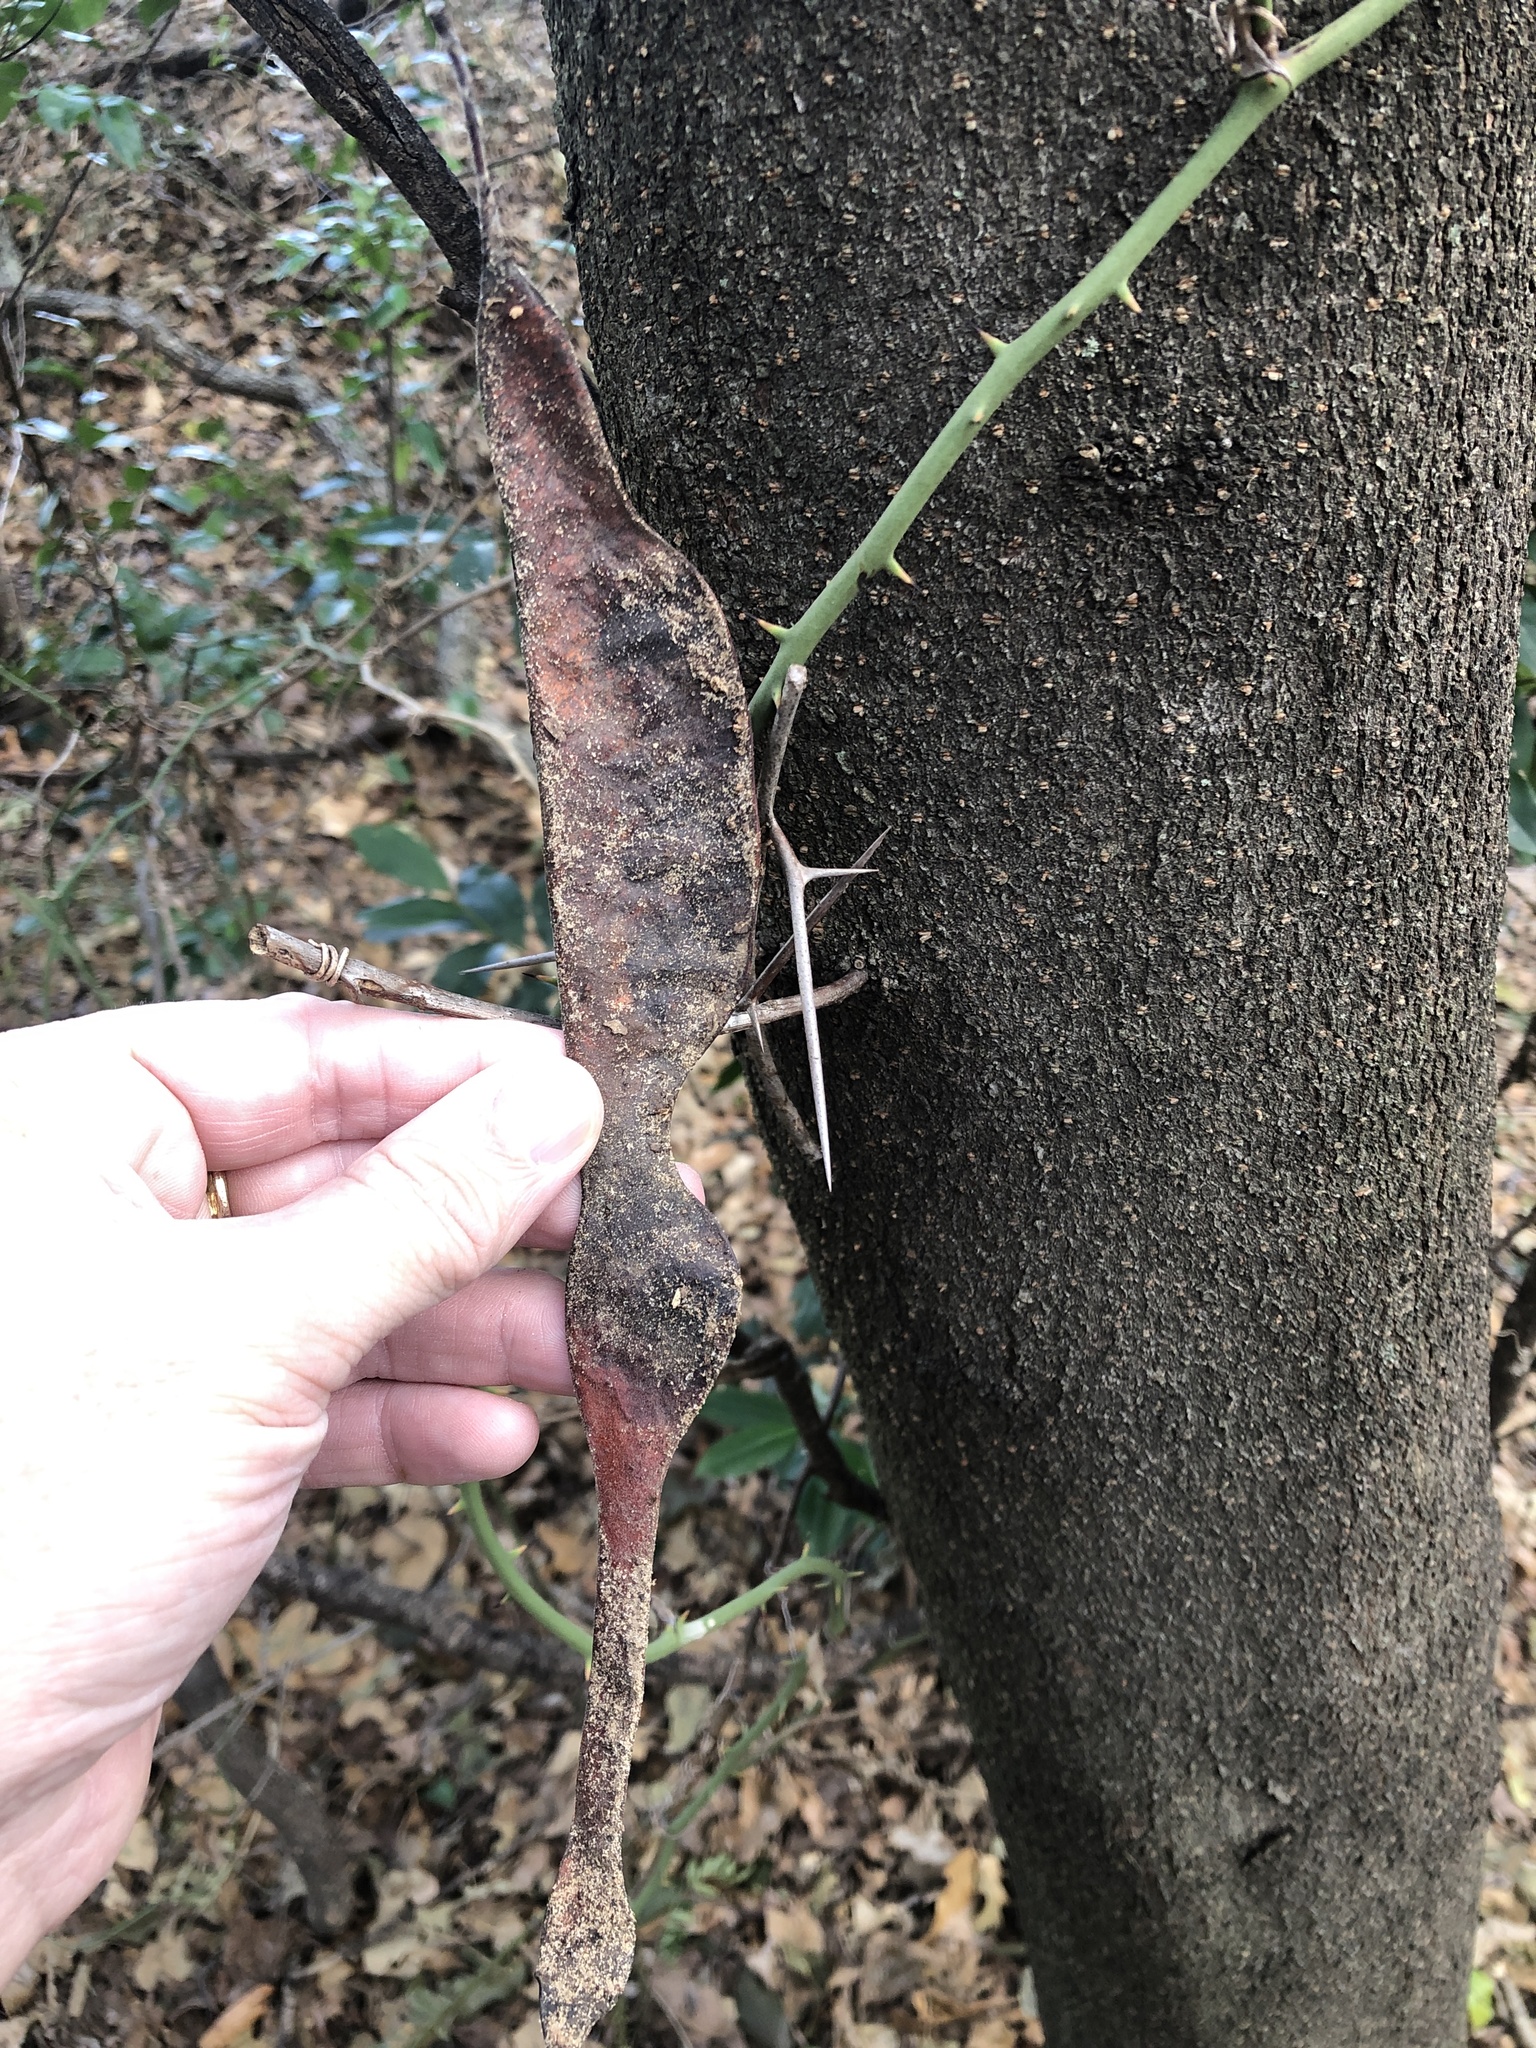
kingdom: Plantae
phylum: Tracheophyta
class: Magnoliopsida
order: Fabales
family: Fabaceae
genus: Gleditsia
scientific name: Gleditsia triacanthos
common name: Common honeylocust
